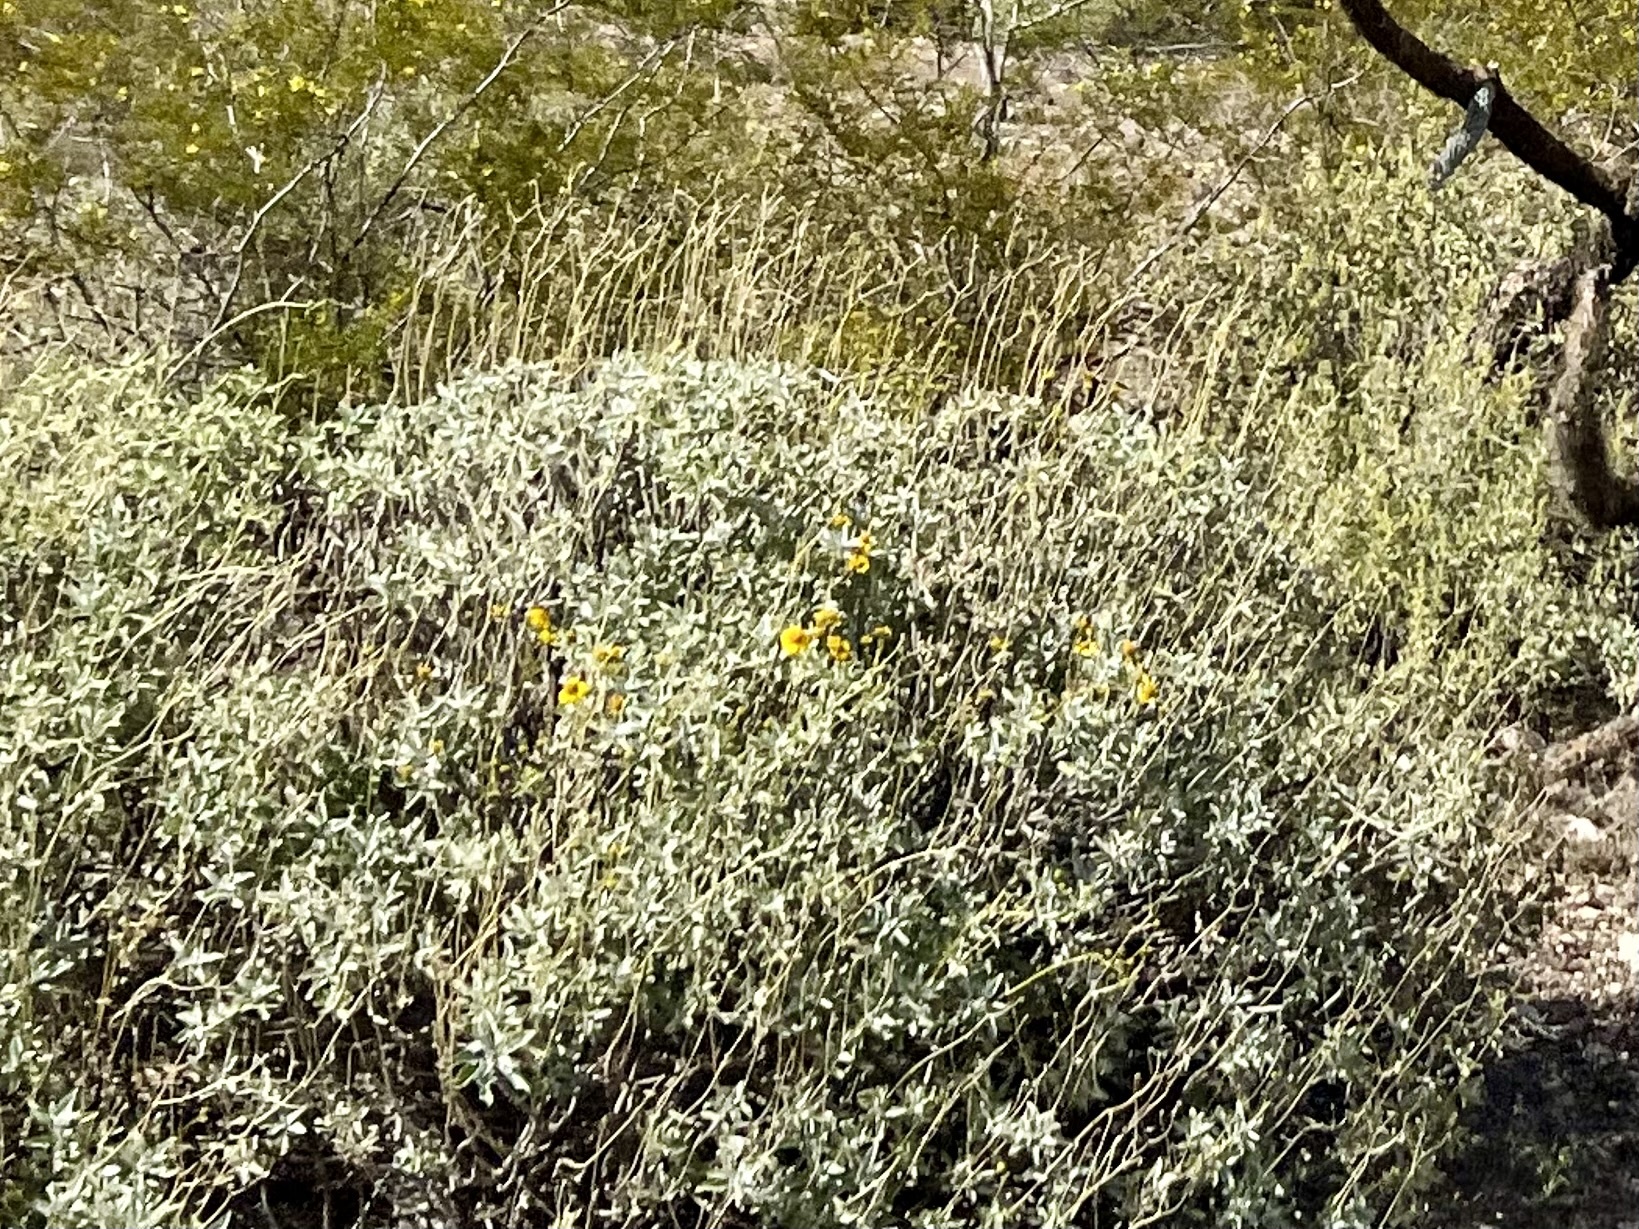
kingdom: Plantae
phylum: Tracheophyta
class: Magnoliopsida
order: Asterales
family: Asteraceae
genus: Encelia
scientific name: Encelia farinosa
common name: Brittlebush
